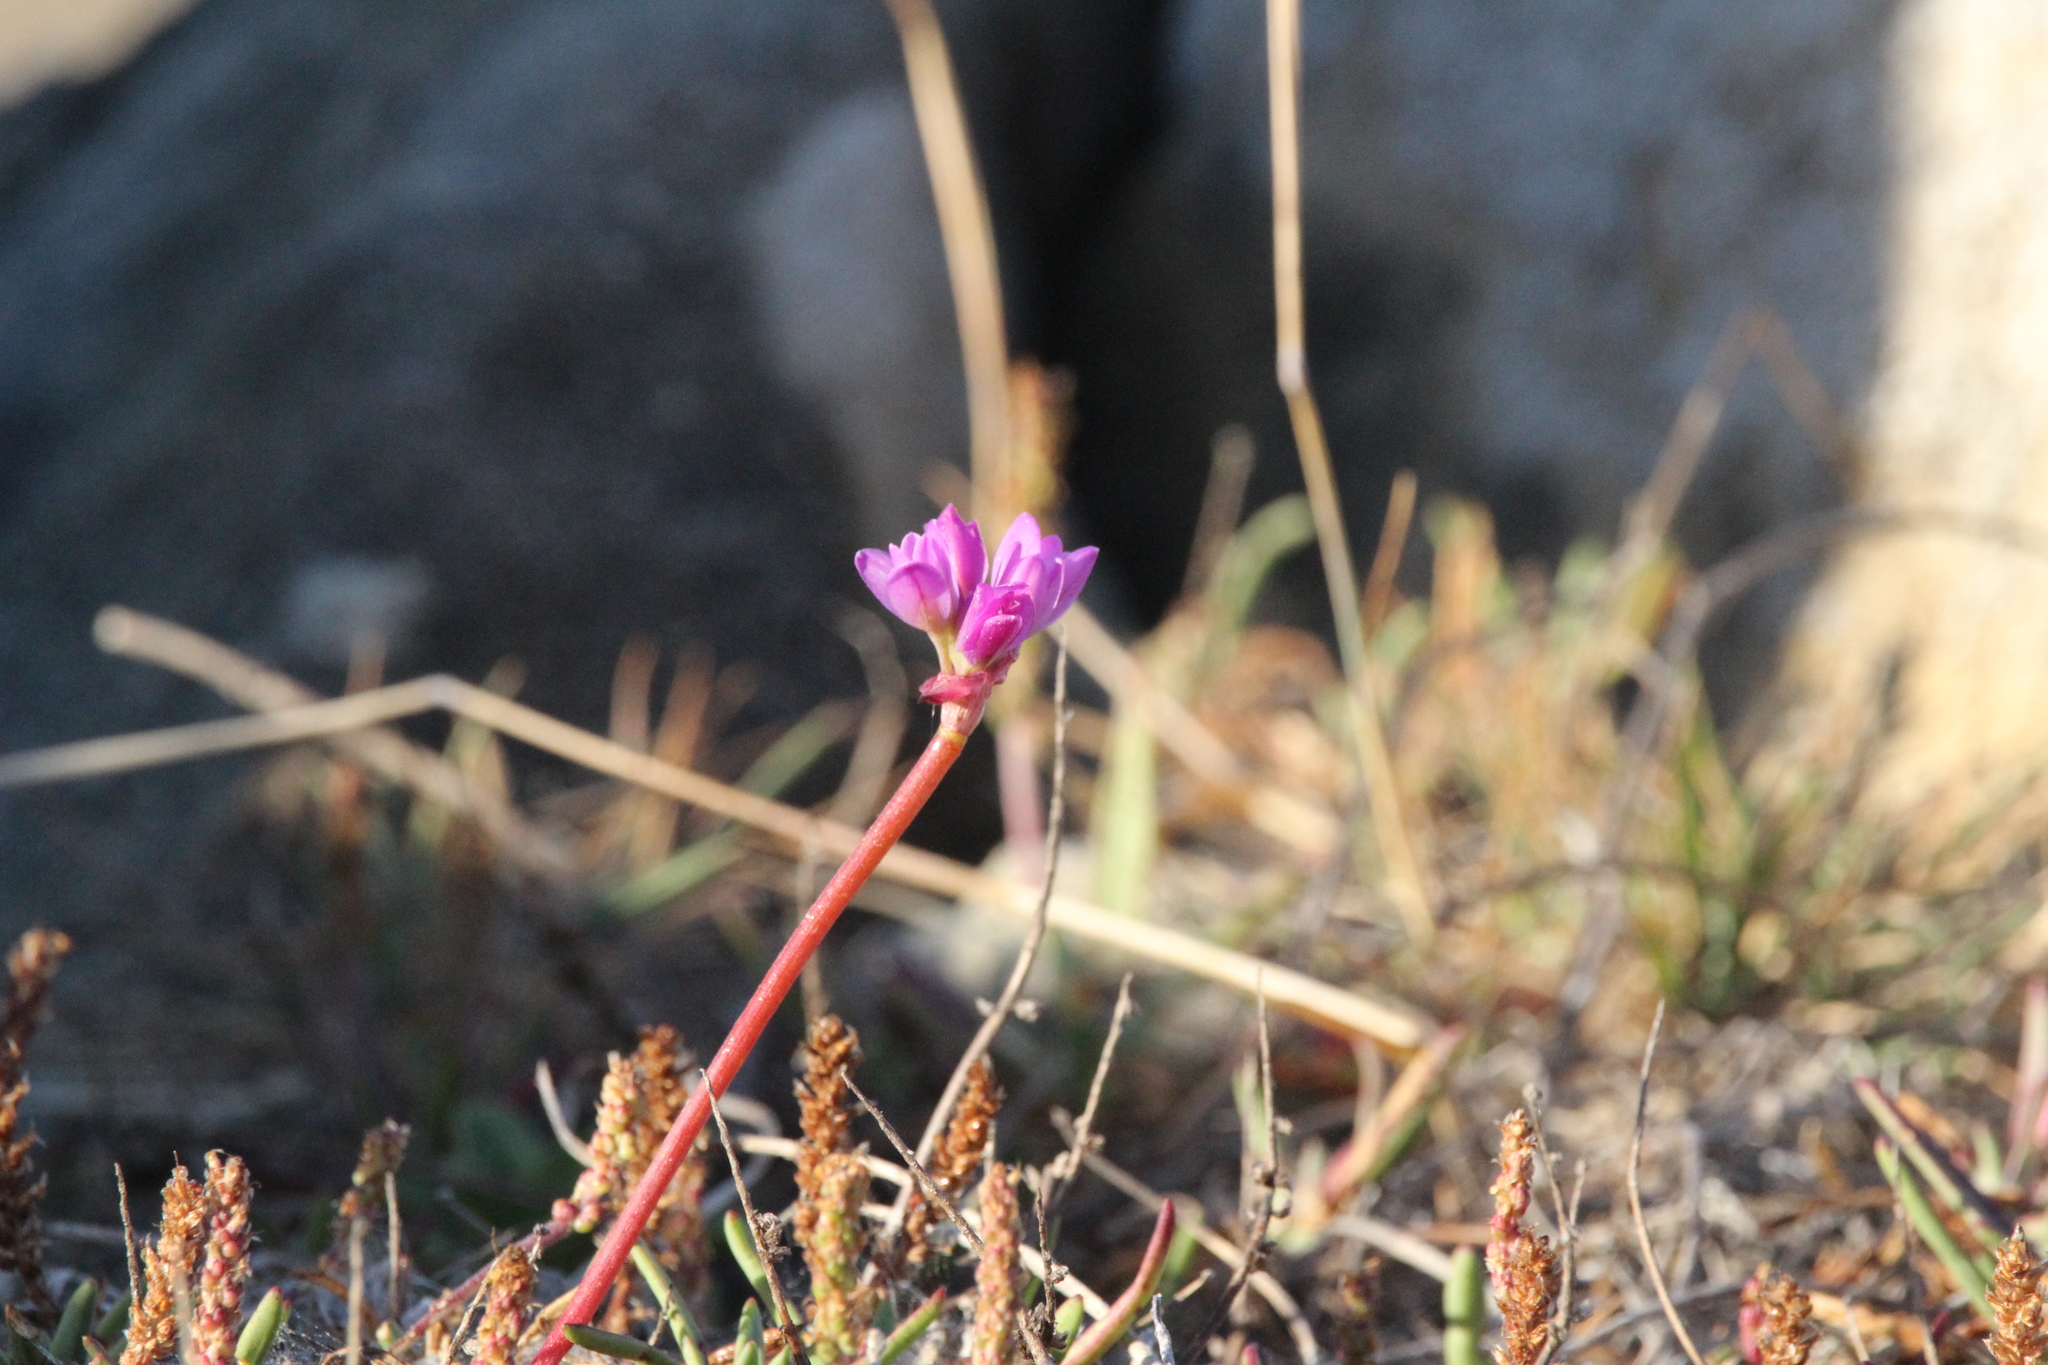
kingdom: Plantae
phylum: Tracheophyta
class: Liliopsida
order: Asparagales
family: Amaryllidaceae
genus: Allium
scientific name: Allium dichlamydeum
